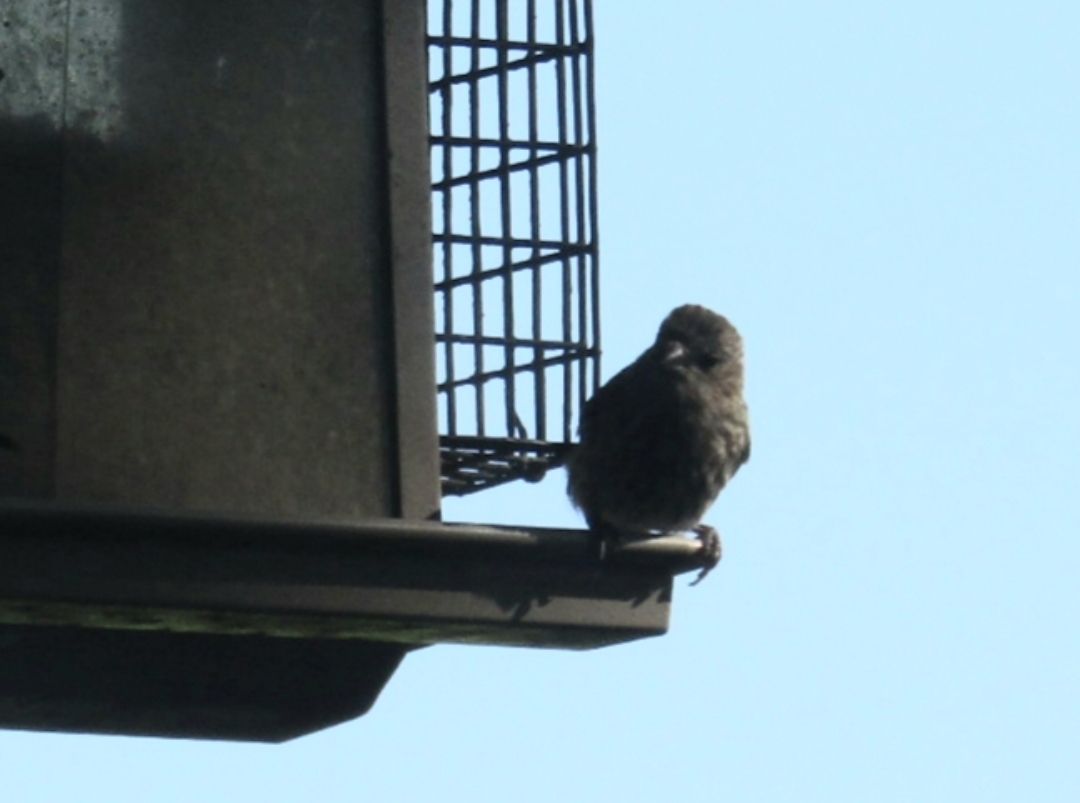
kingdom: Animalia
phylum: Chordata
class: Aves
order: Passeriformes
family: Fringillidae
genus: Haemorhous
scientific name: Haemorhous mexicanus
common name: House finch
